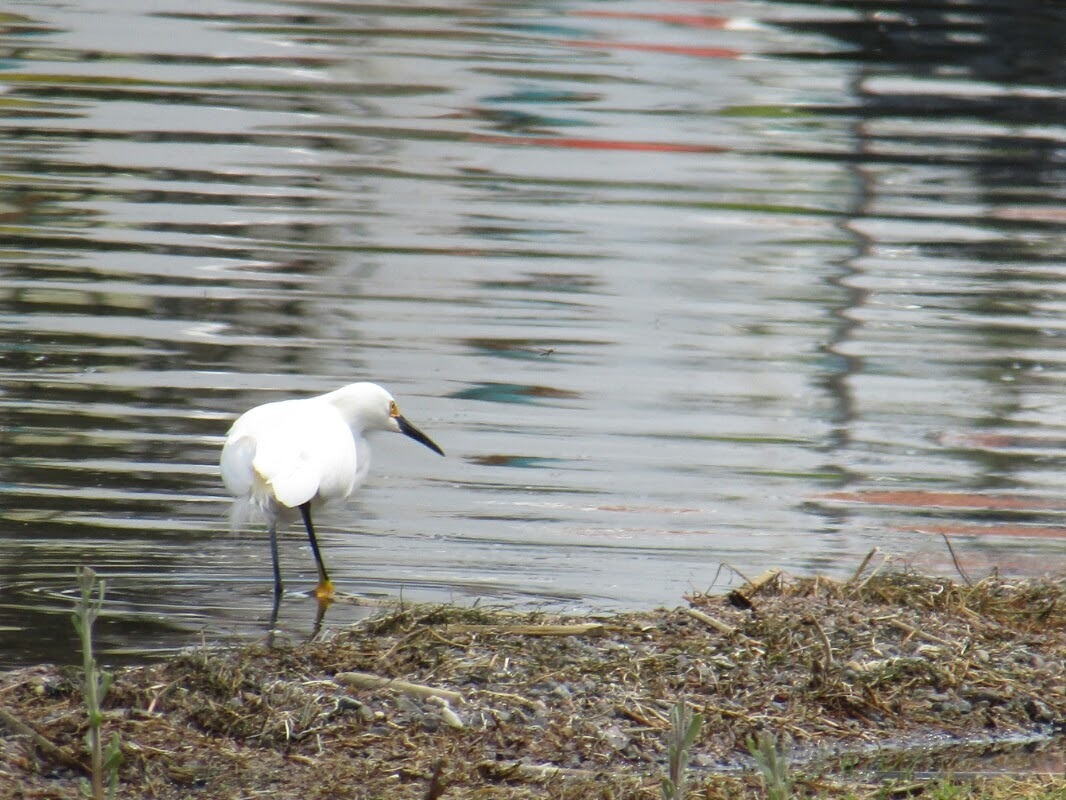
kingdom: Animalia
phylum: Chordata
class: Aves
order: Pelecaniformes
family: Ardeidae
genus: Egretta
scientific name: Egretta thula
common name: Snowy egret
